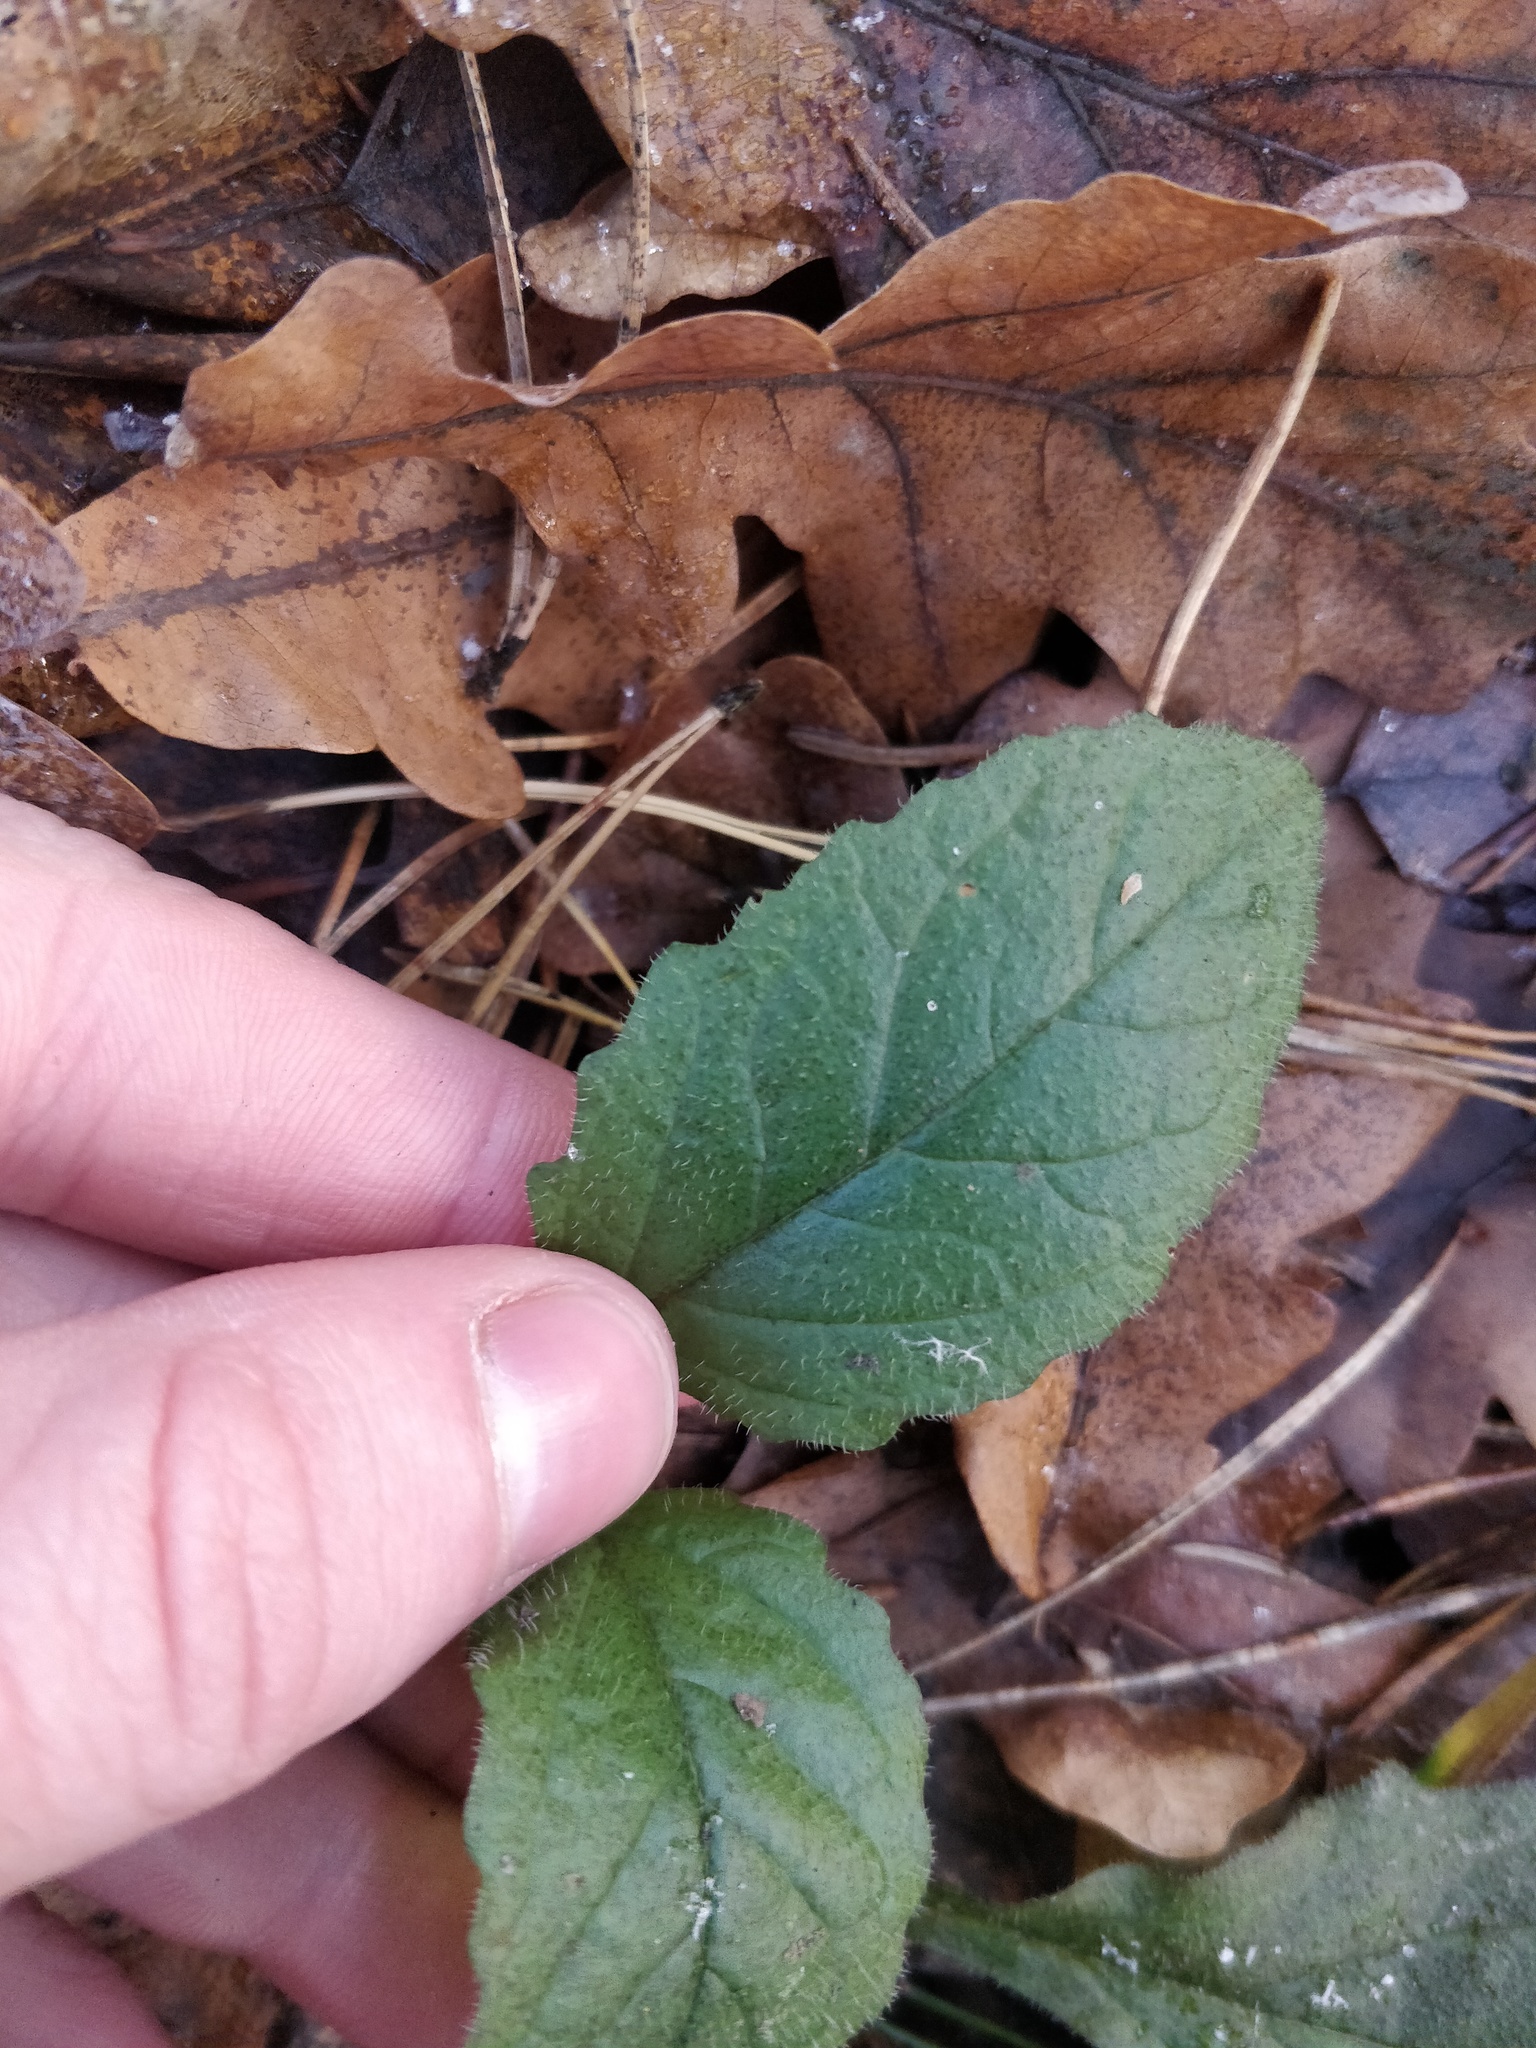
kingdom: Plantae
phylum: Tracheophyta
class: Magnoliopsida
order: Lamiales
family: Lamiaceae
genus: Ajuga
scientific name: Ajuga reptans
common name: Bugle
